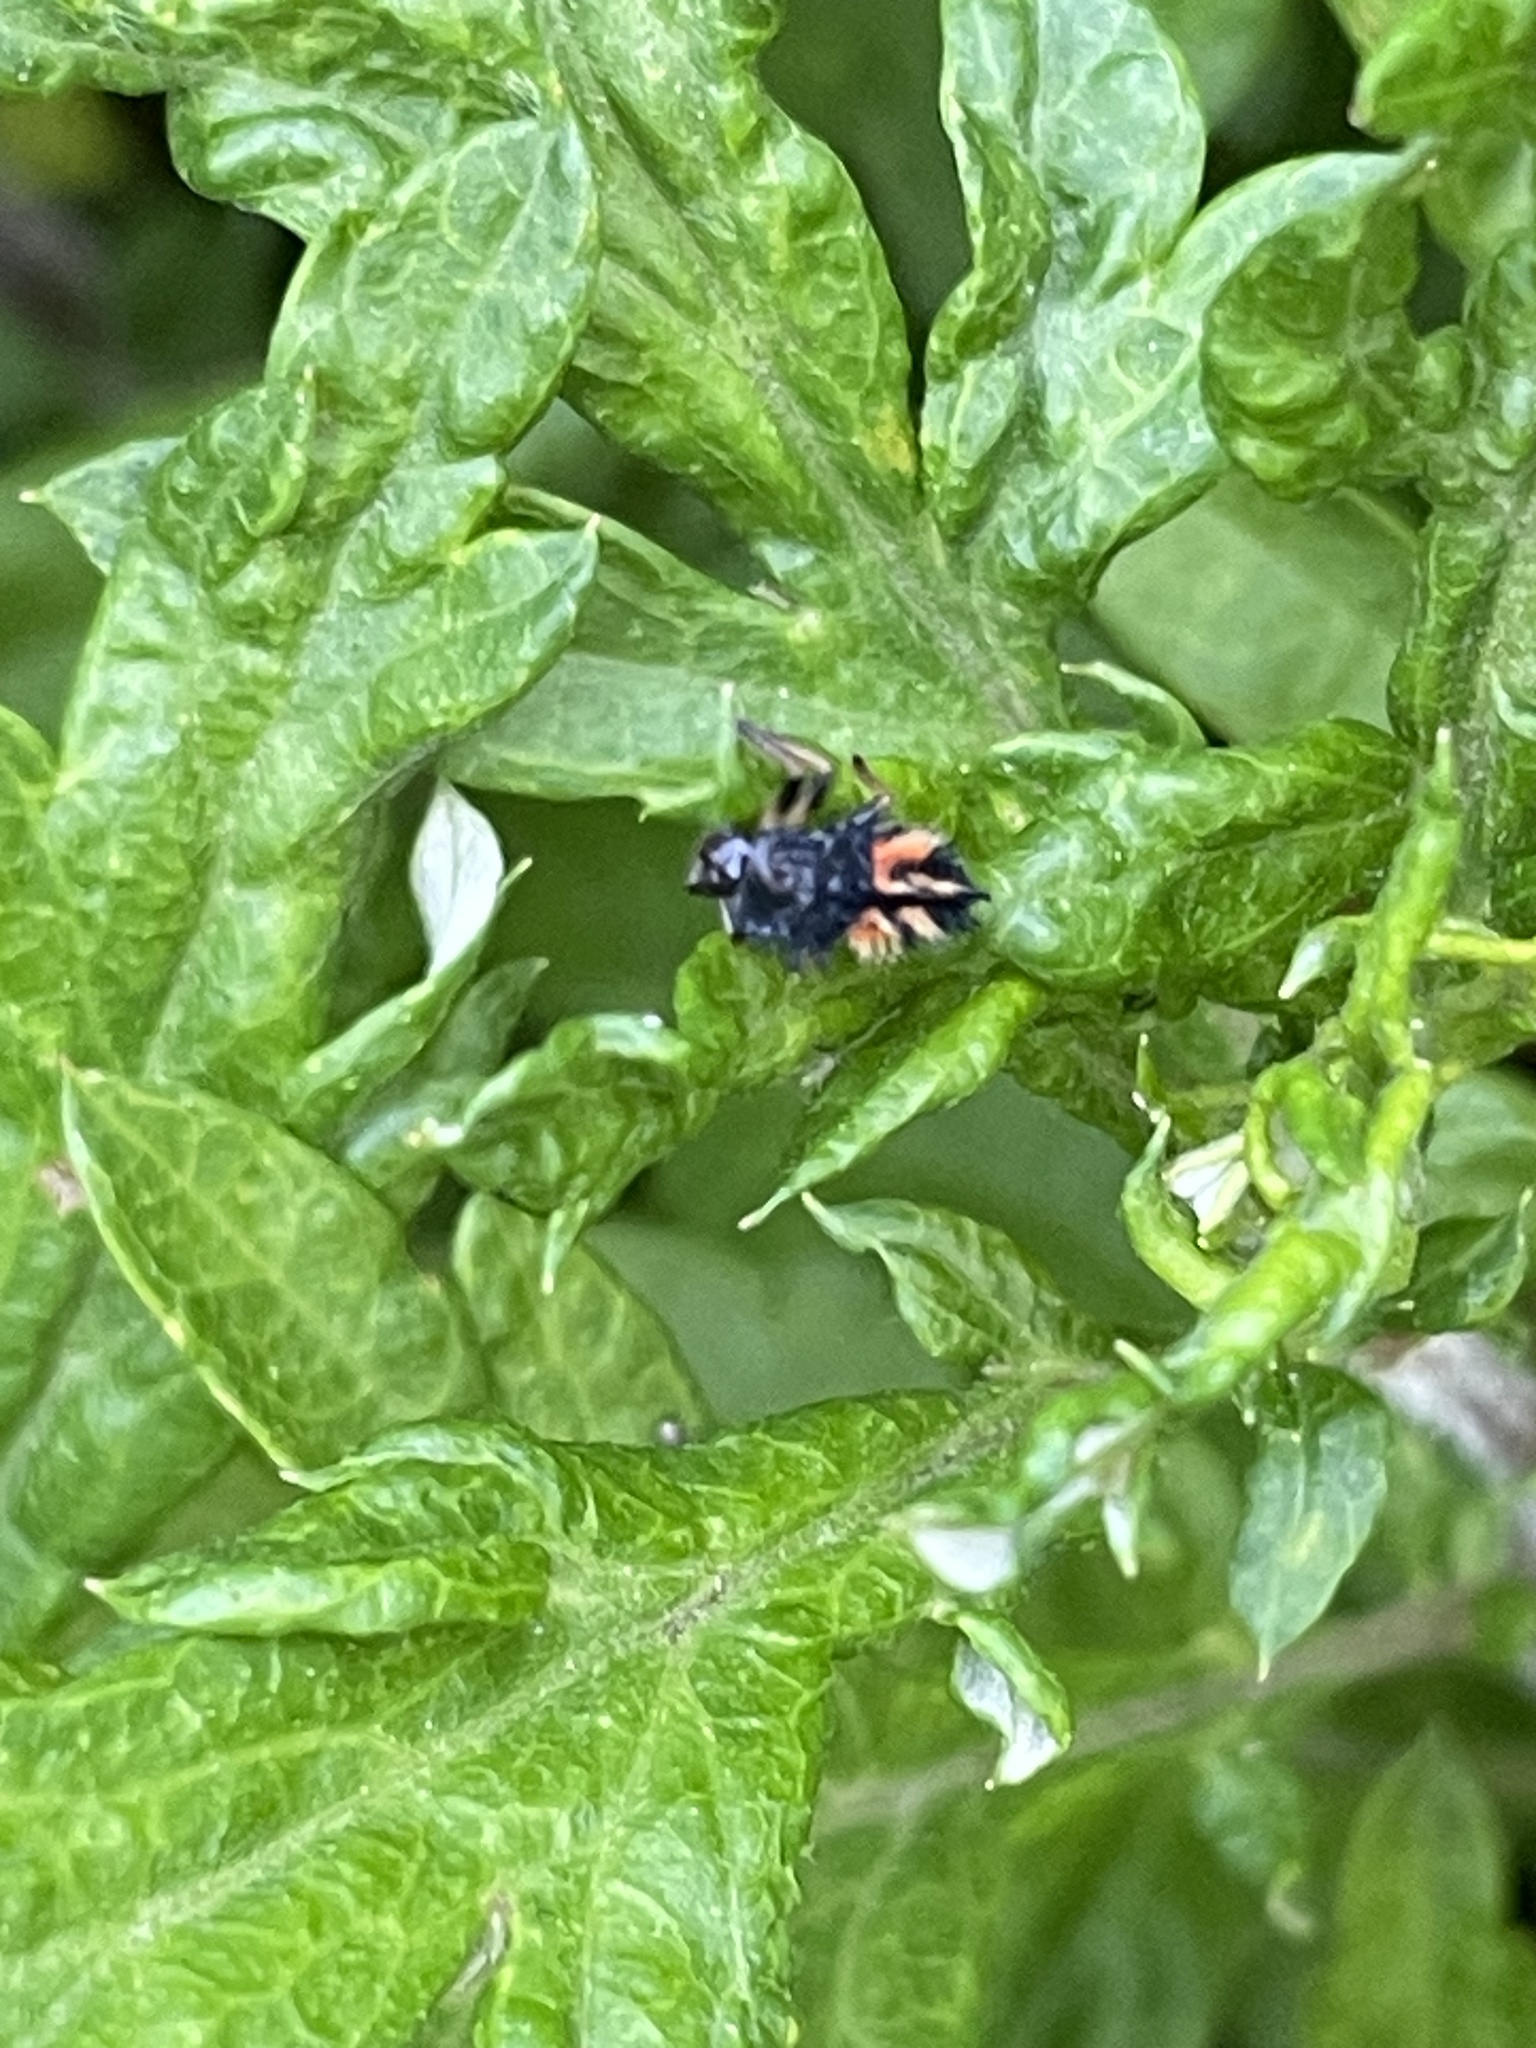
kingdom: Animalia
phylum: Arthropoda
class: Insecta
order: Coleoptera
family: Coccinellidae
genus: Harmonia
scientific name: Harmonia axyridis
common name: Harlequin ladybird
